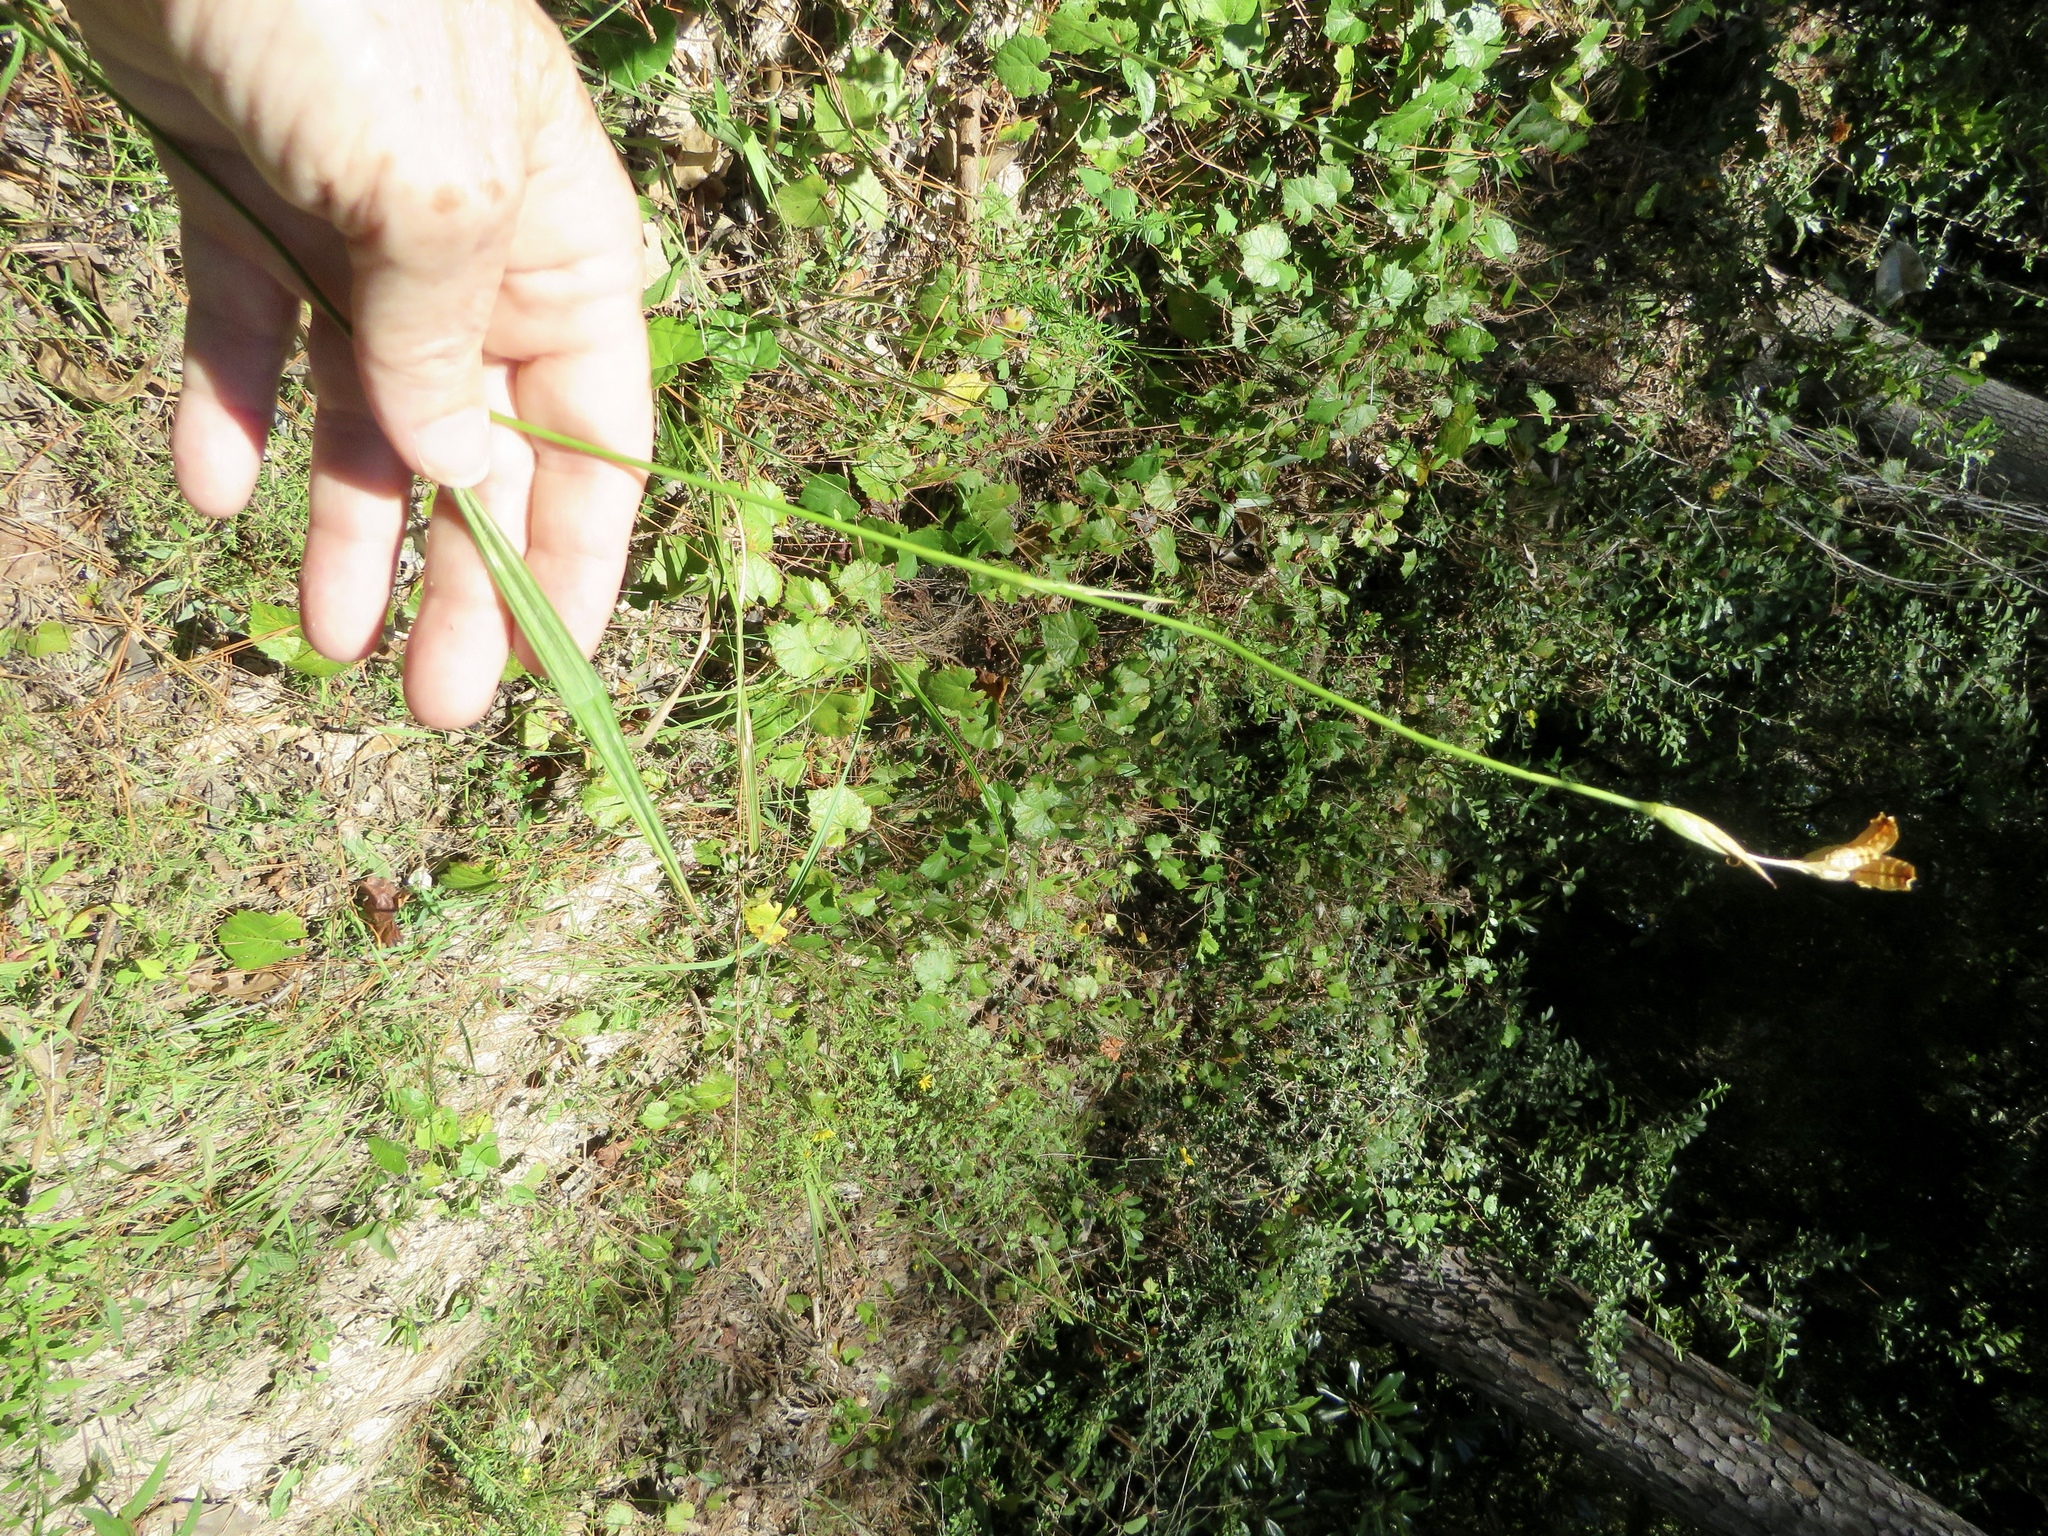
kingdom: Plantae
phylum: Tracheophyta
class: Liliopsida
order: Asparagales
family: Iridaceae
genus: Alophia
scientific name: Alophia drummondii
